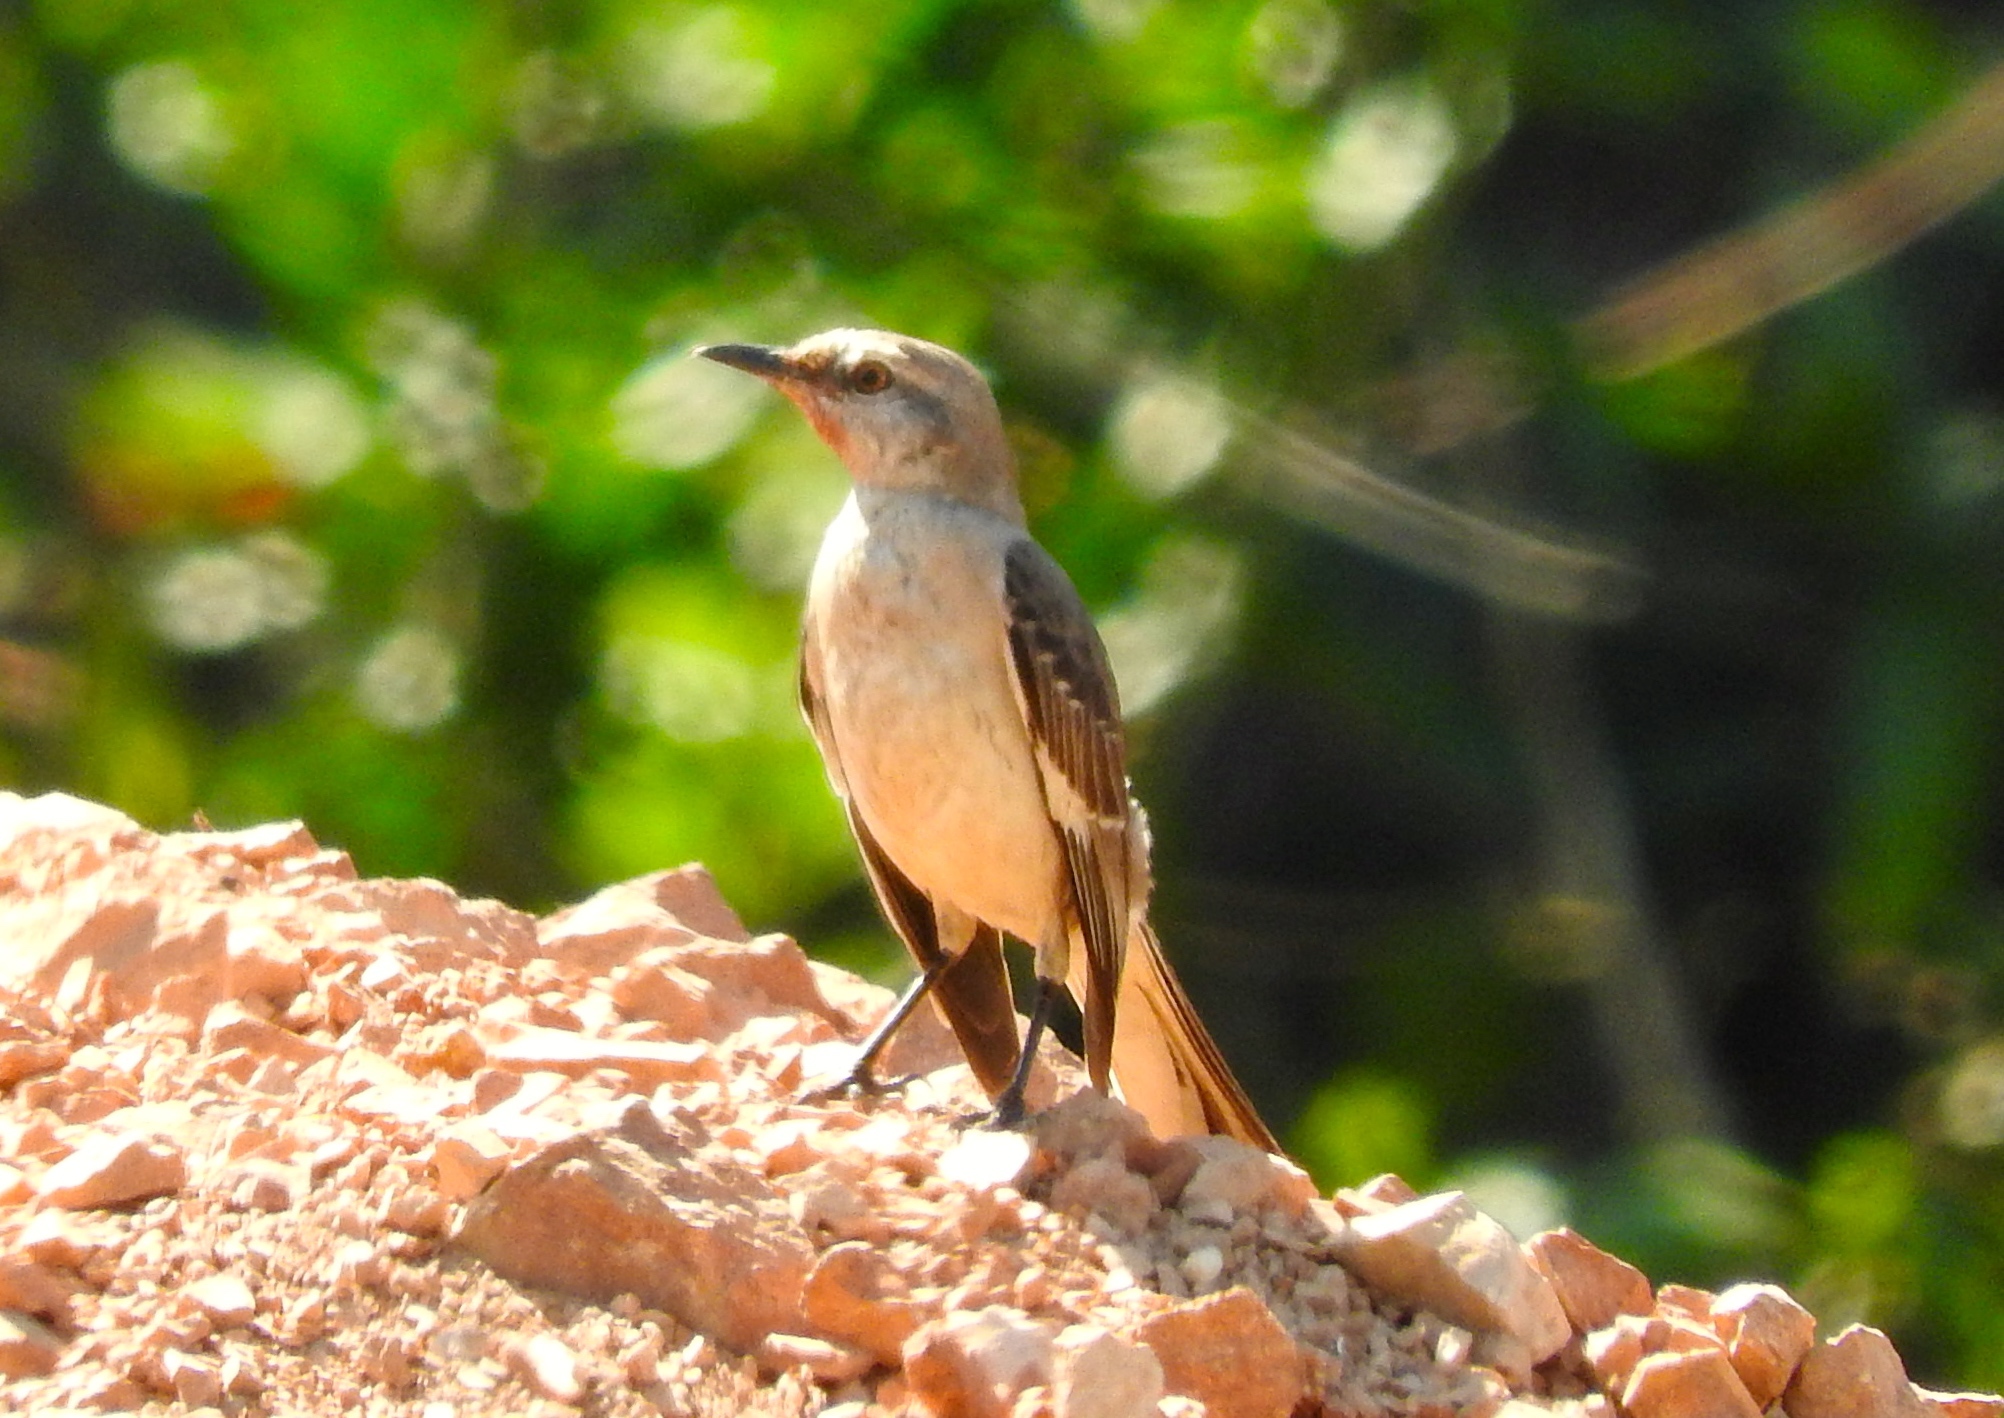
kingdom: Animalia
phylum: Chordata
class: Aves
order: Passeriformes
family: Mimidae
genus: Mimus
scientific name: Mimus polyglottos
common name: Northern mockingbird
